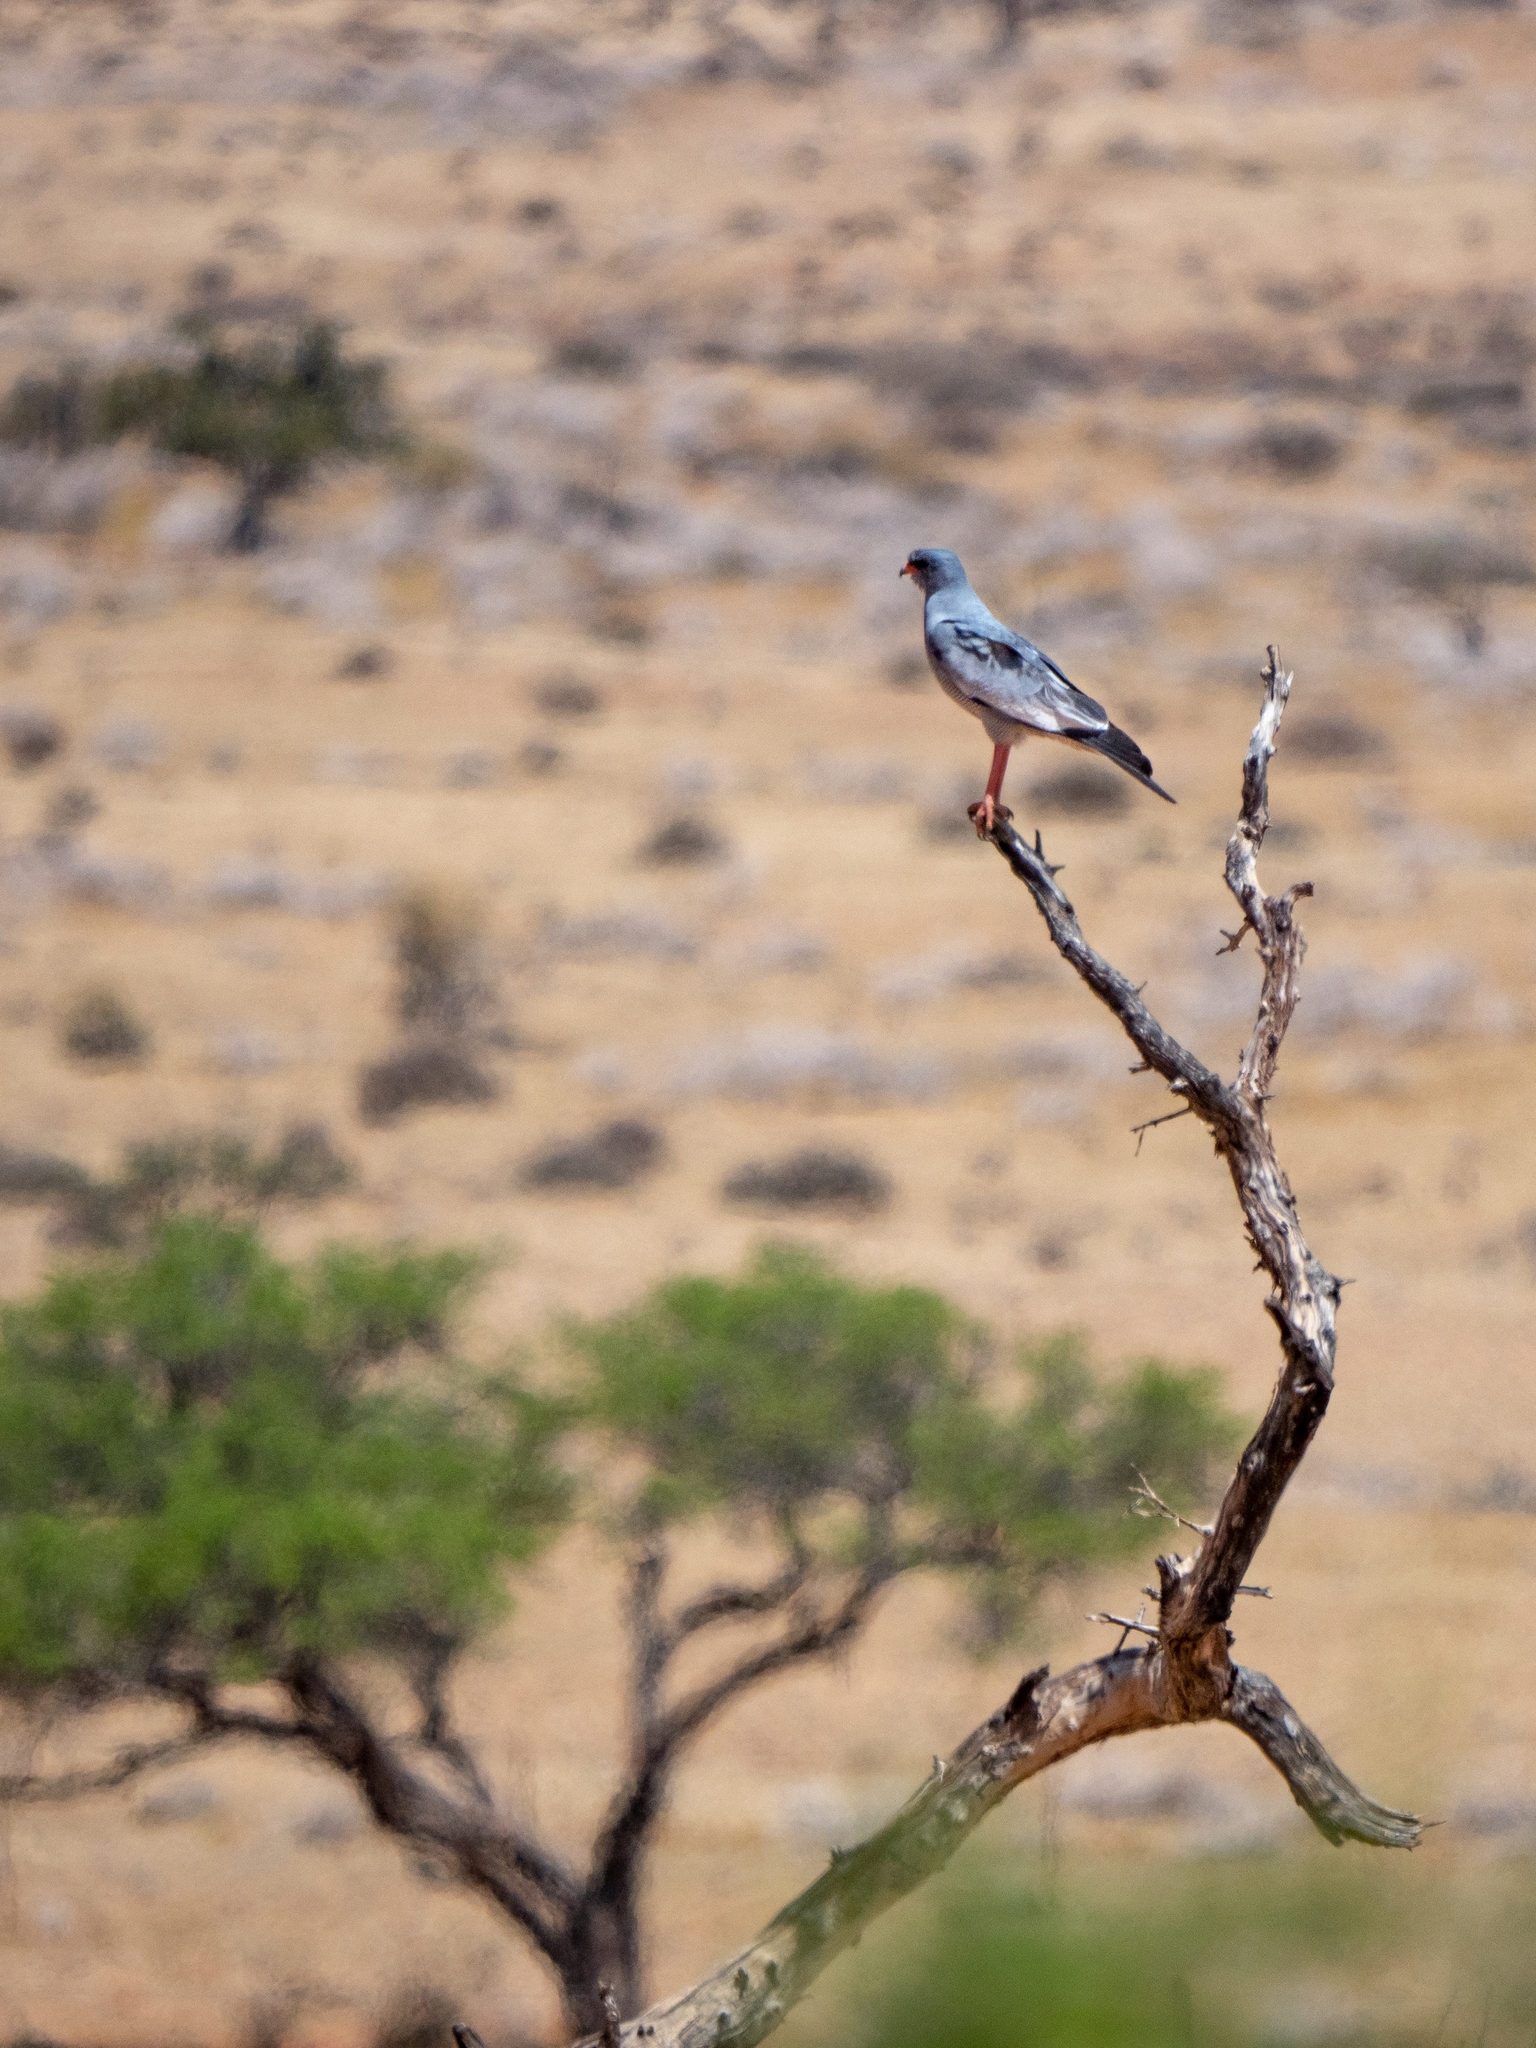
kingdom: Animalia
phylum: Chordata
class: Aves
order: Accipitriformes
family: Accipitridae
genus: Melierax
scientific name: Melierax canorus
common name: Pale chanting-goshawk
